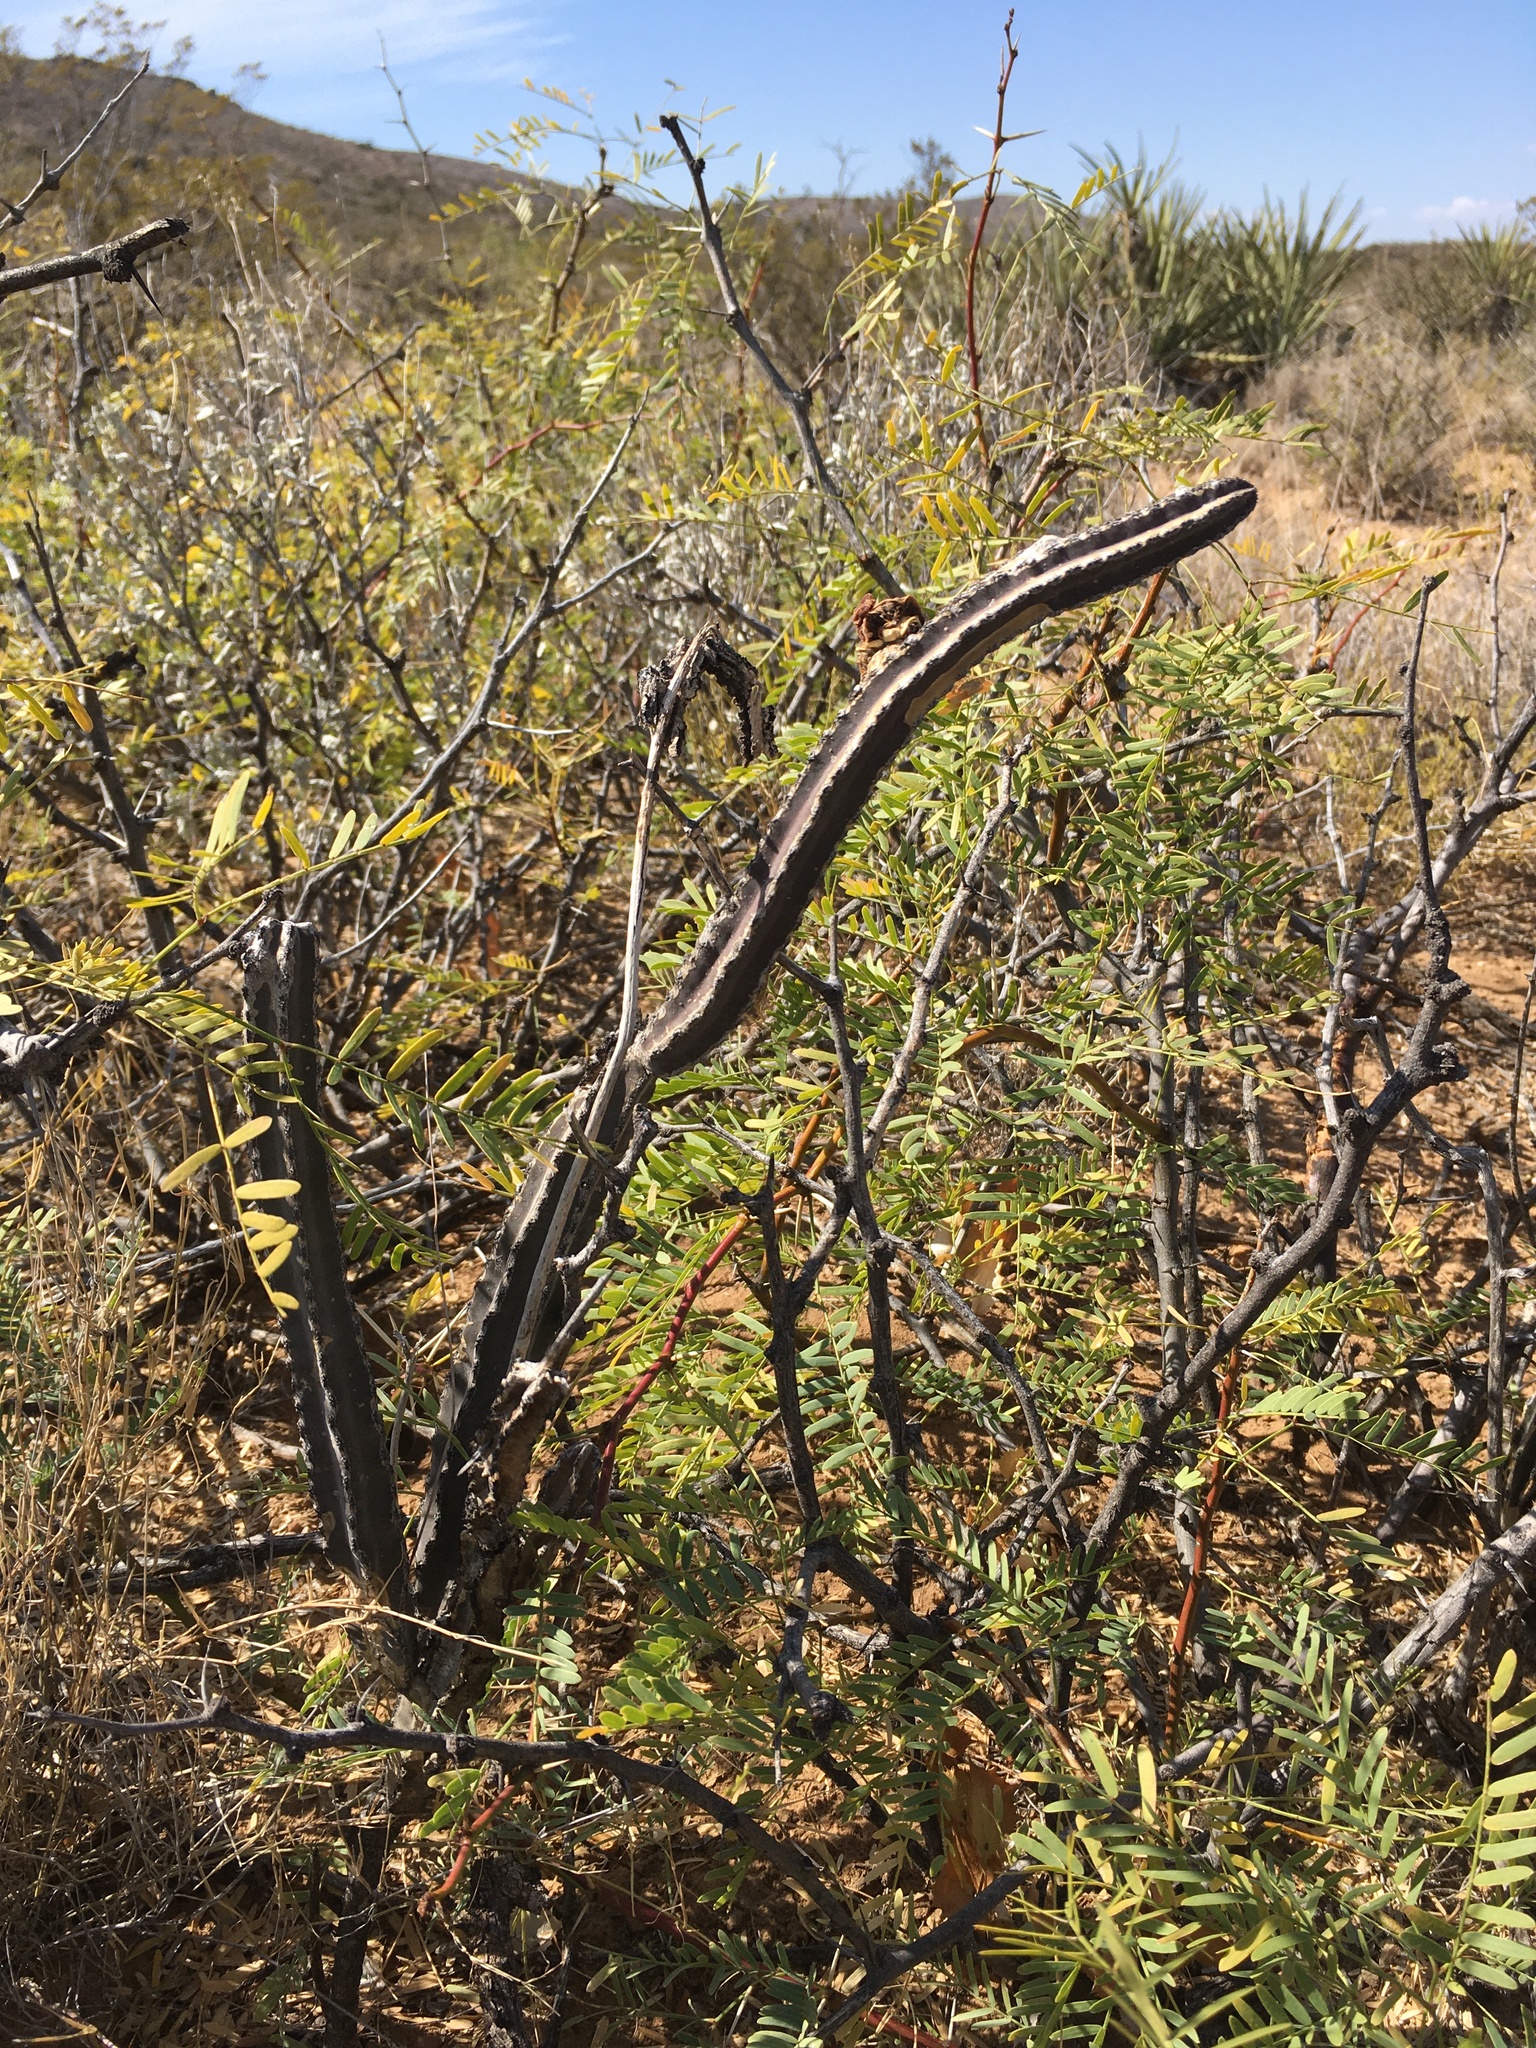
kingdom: Plantae
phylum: Tracheophyta
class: Magnoliopsida
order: Caryophyllales
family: Cactaceae
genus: Peniocereus
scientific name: Peniocereus greggii
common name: Desert night-blooming cereus
